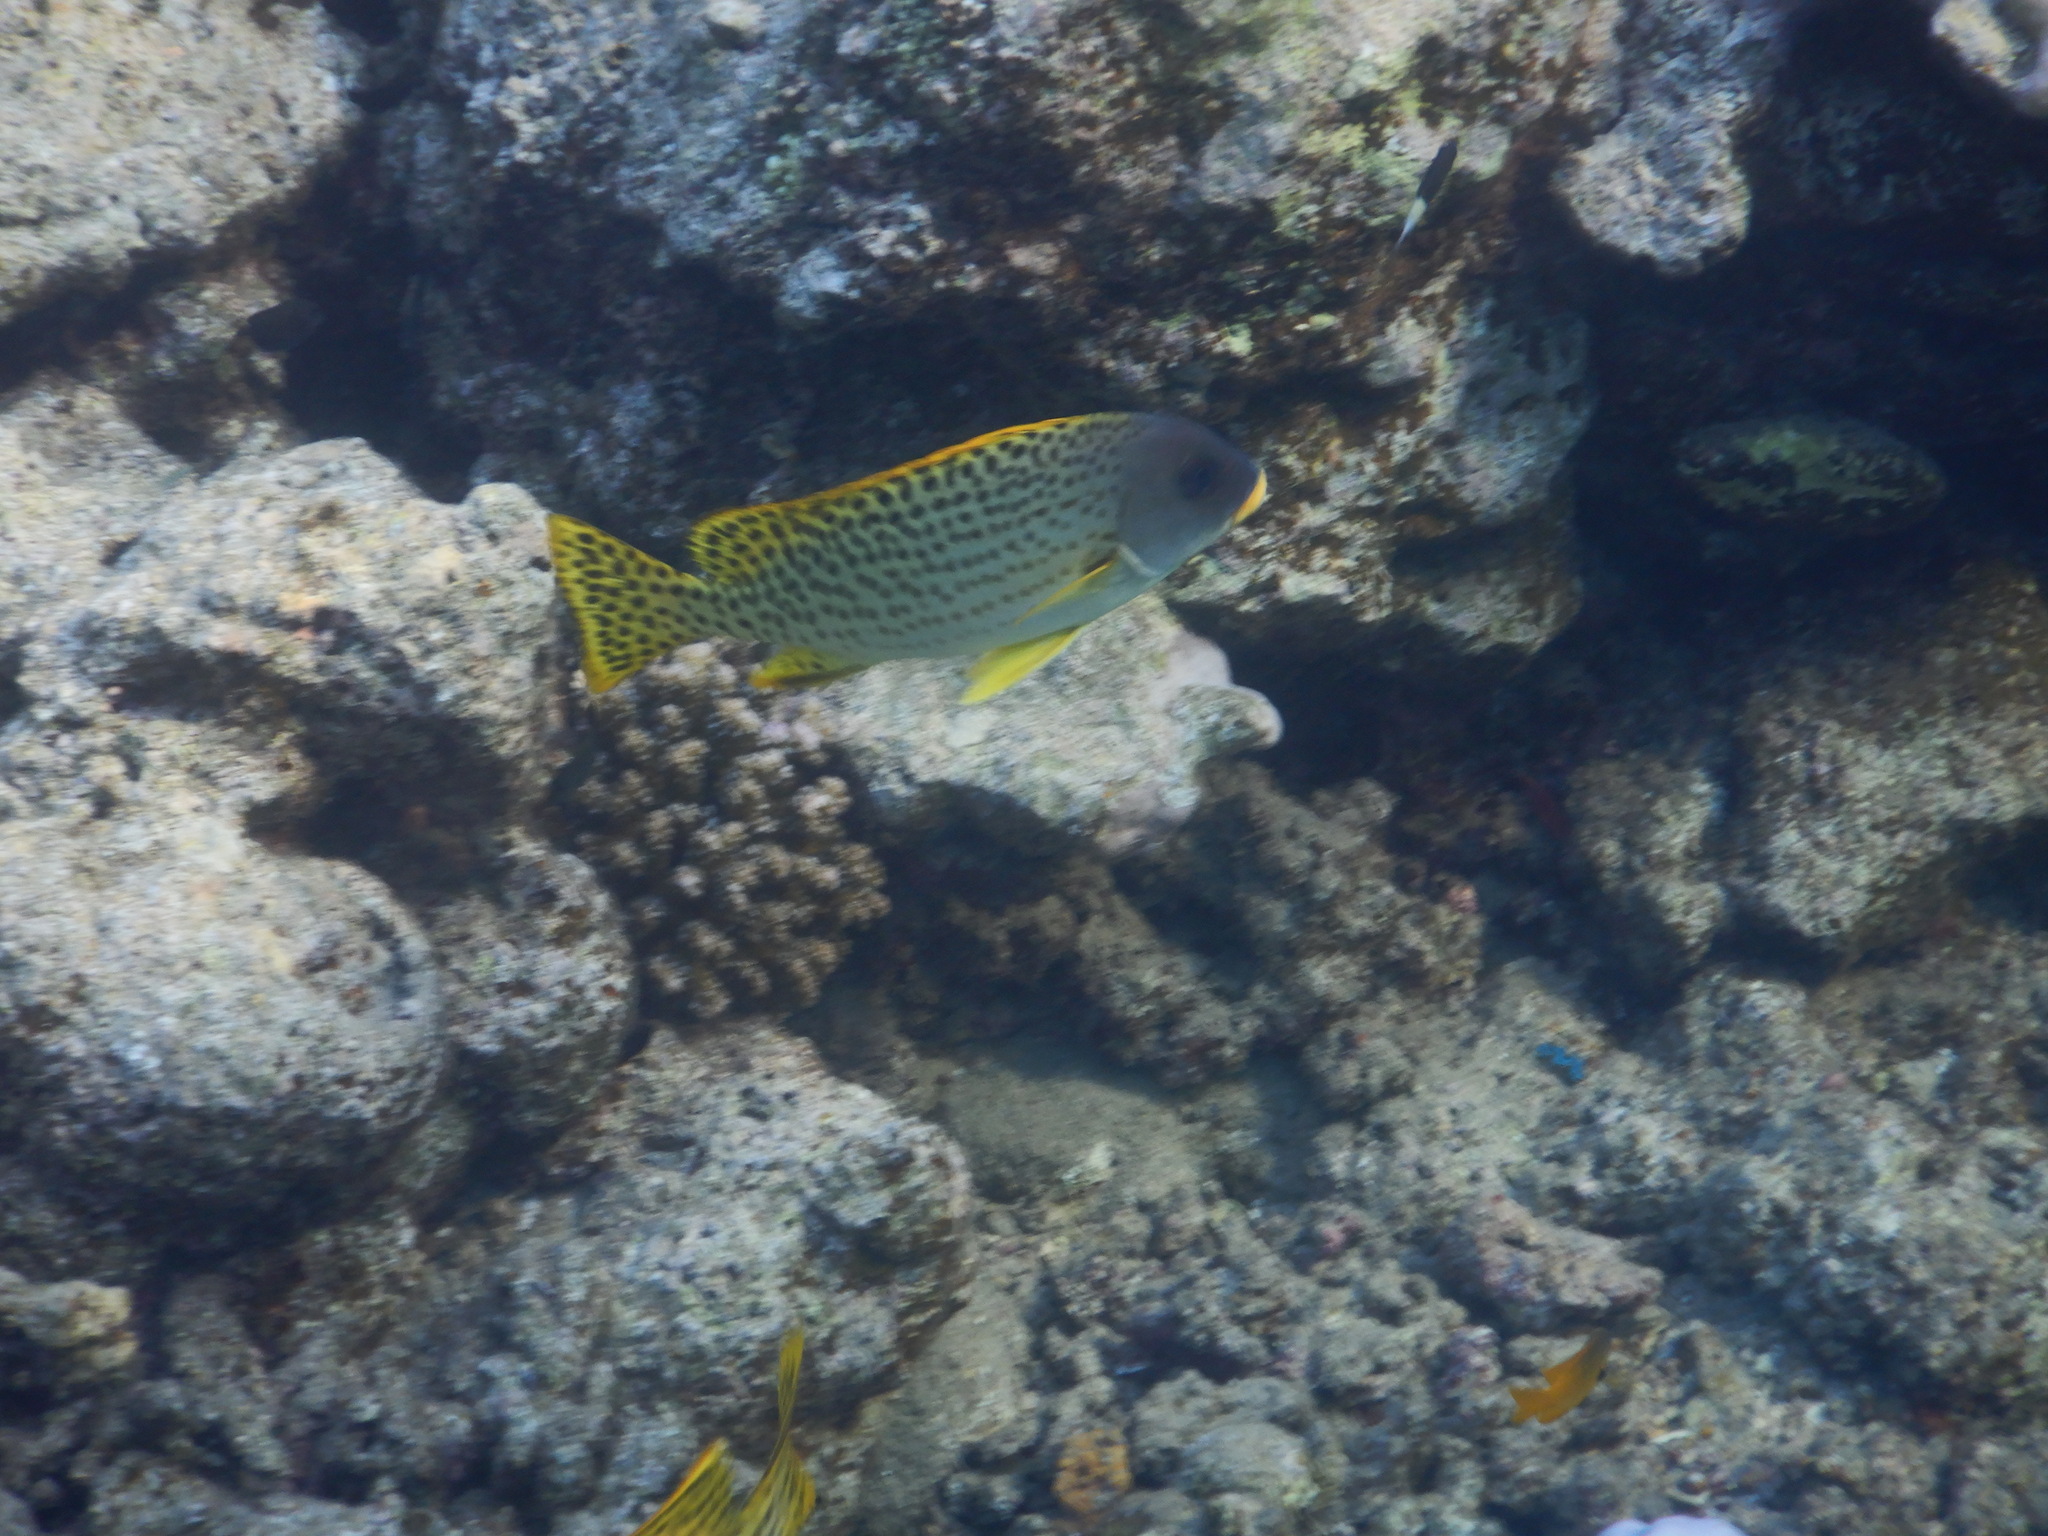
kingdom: Animalia
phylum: Chordata
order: Perciformes
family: Haemulidae
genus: Plectorhinchus
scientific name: Plectorhinchus gaterinus
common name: Blackspotted rubberlip
